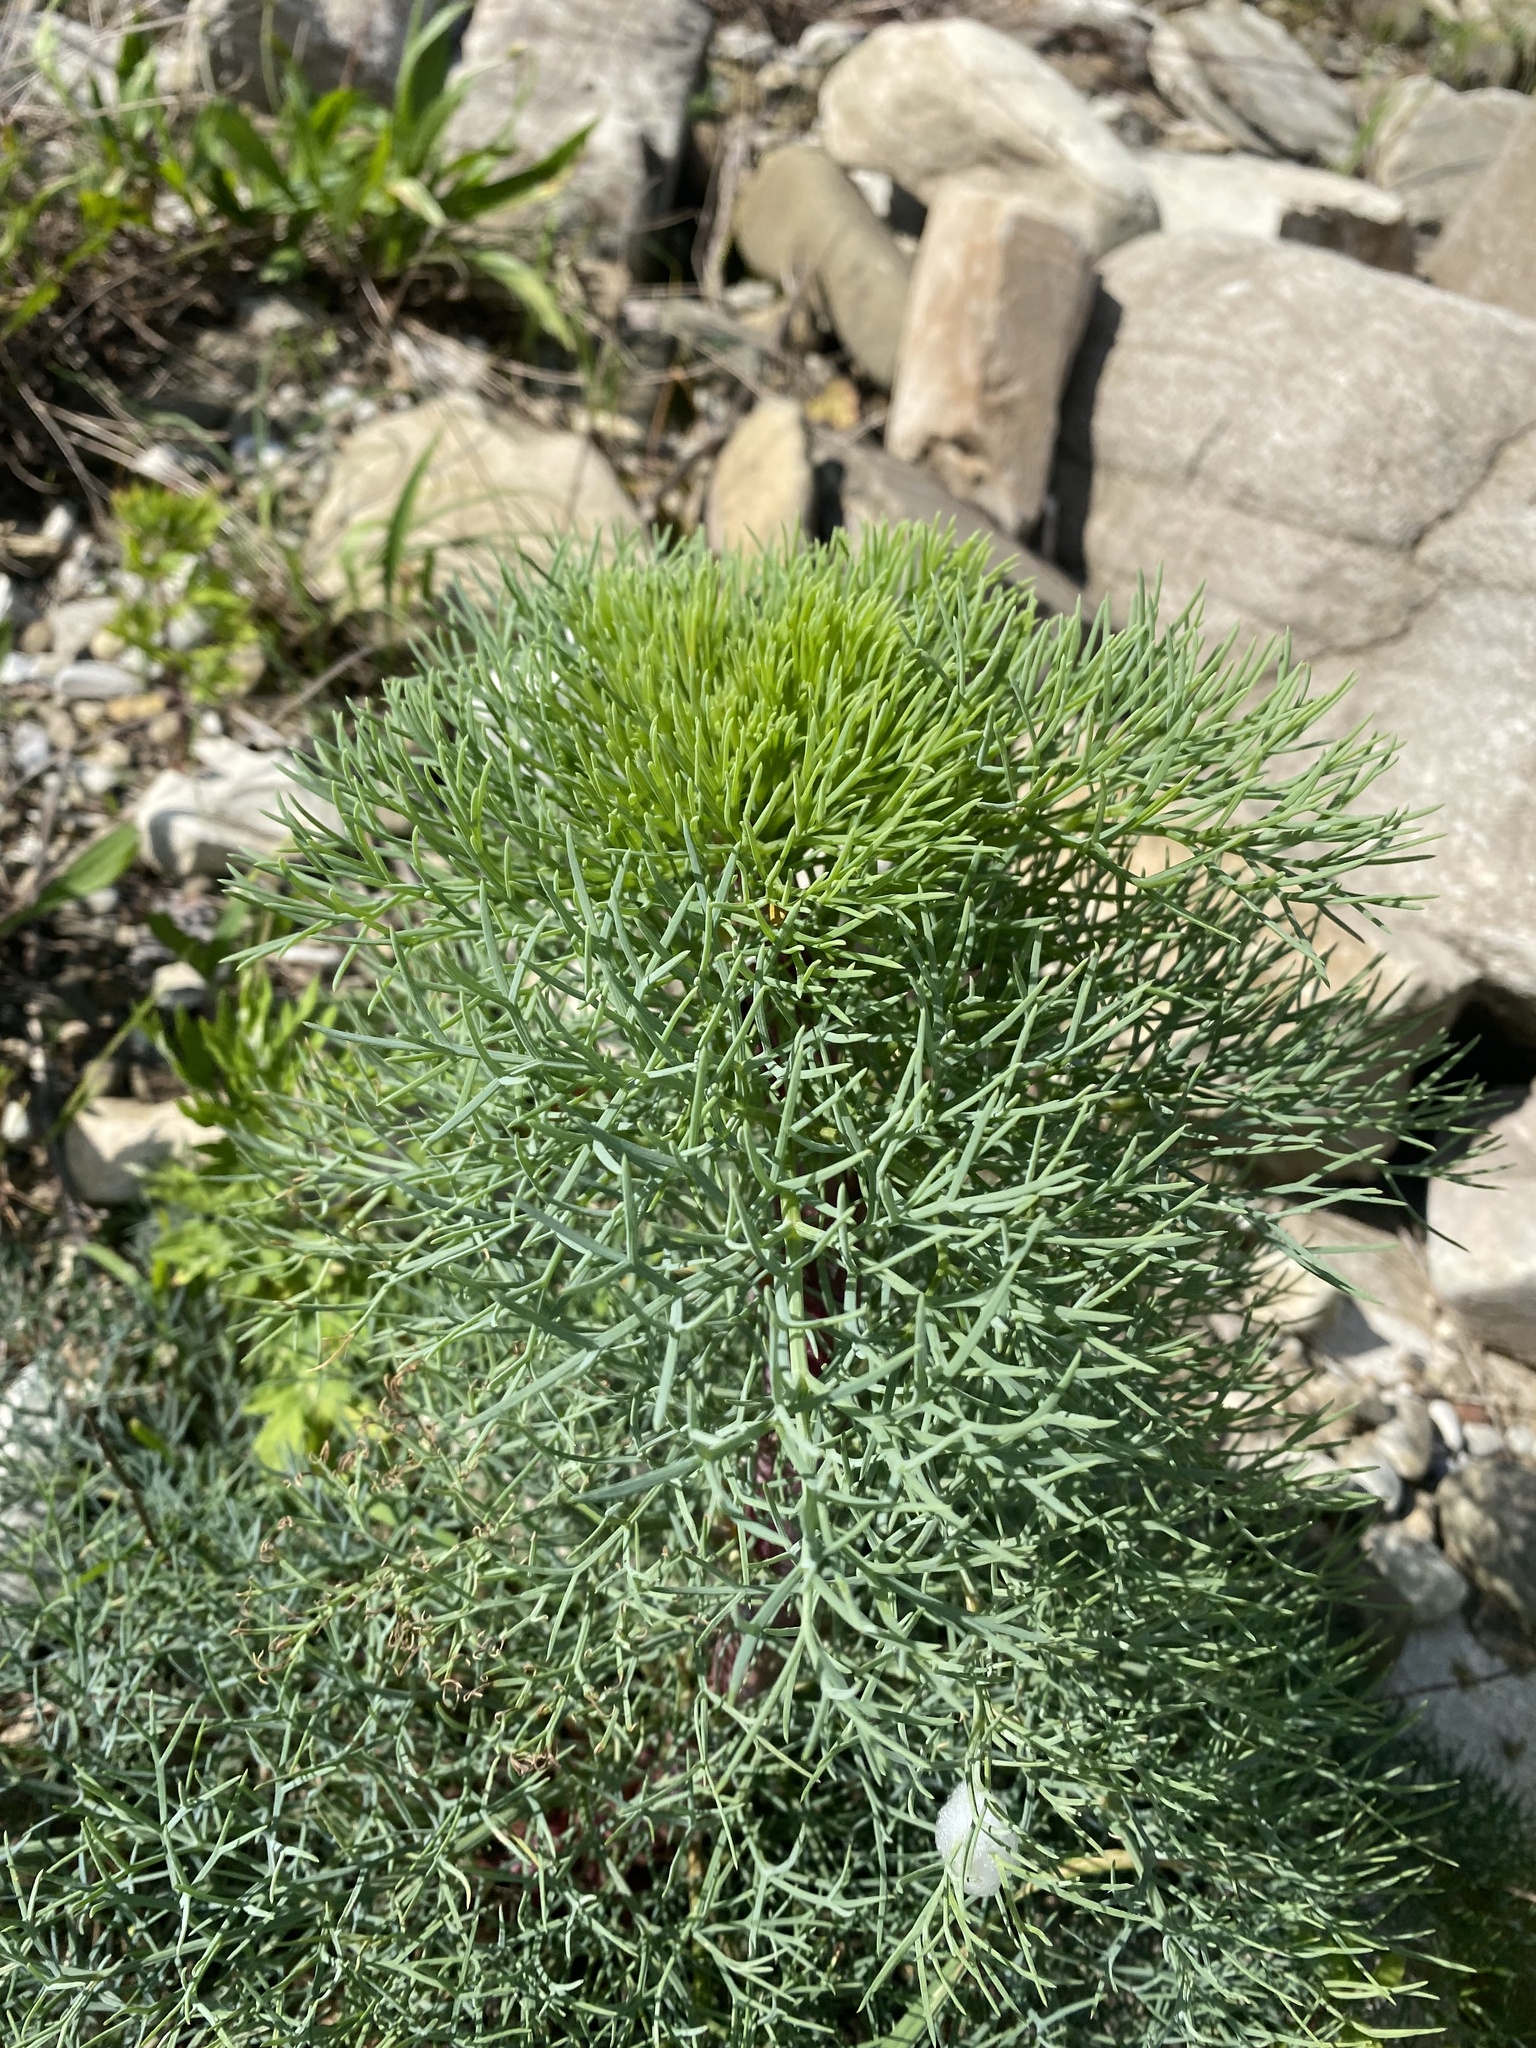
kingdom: Plantae
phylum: Tracheophyta
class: Magnoliopsida
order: Apiales
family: Apiaceae
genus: Seseli
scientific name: Seseli ponticum
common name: Pontic seseli
